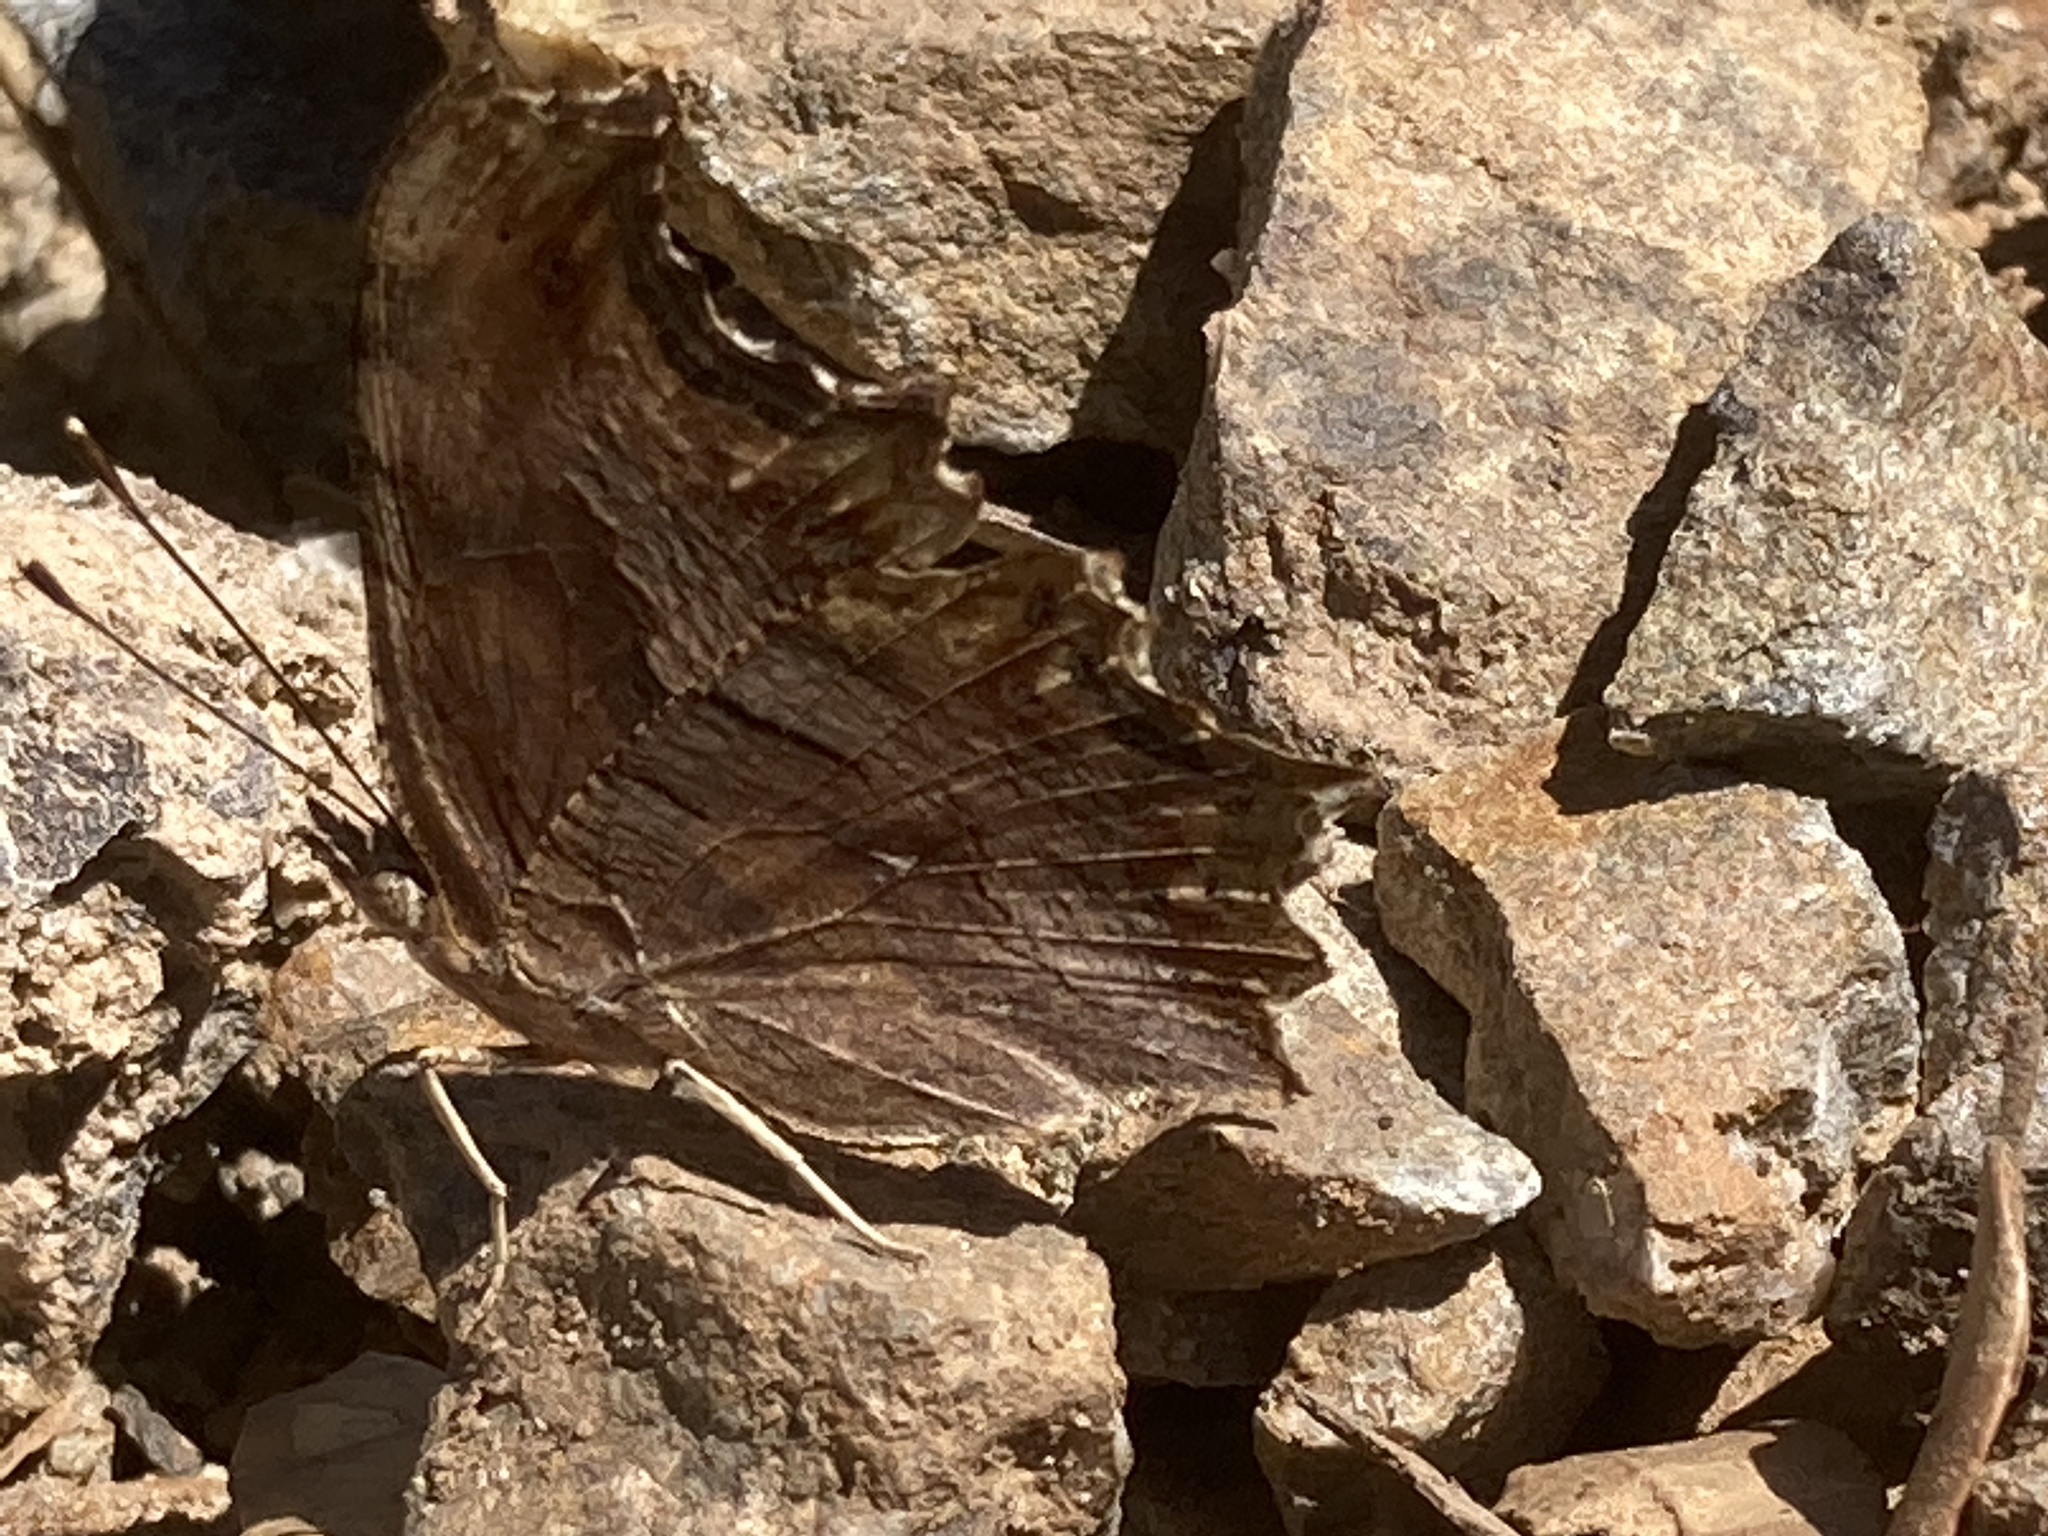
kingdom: Animalia
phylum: Arthropoda
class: Insecta
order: Lepidoptera
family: Nymphalidae
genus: Polygonia
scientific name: Polygonia egea
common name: Southern comma
